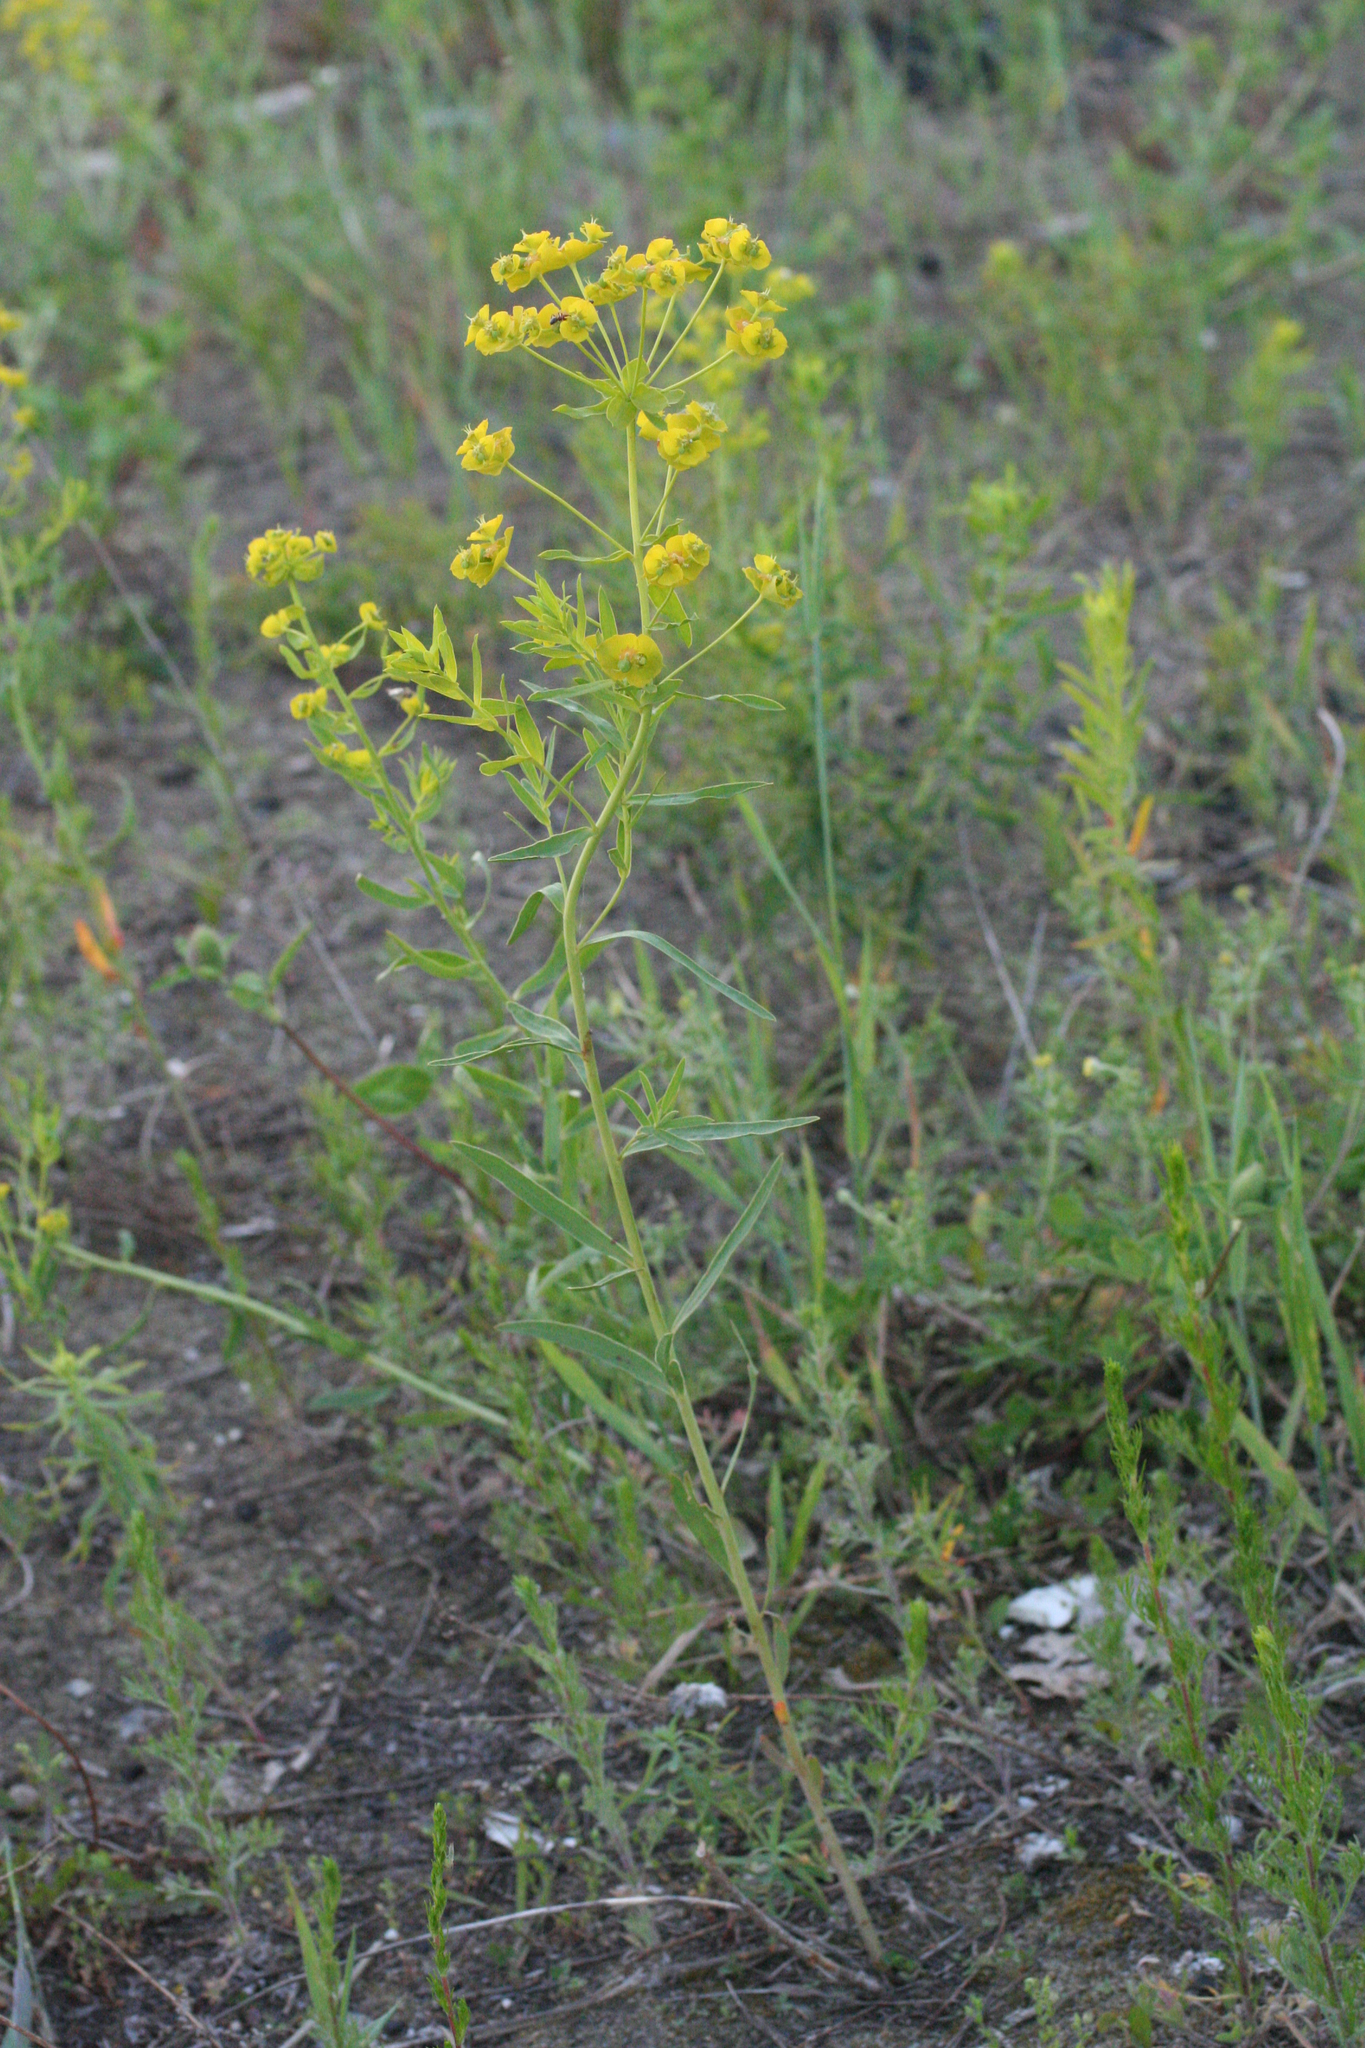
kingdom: Plantae
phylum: Tracheophyta
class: Magnoliopsida
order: Malpighiales
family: Euphorbiaceae
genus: Euphorbia
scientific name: Euphorbia virgata
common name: Leafy spurge
